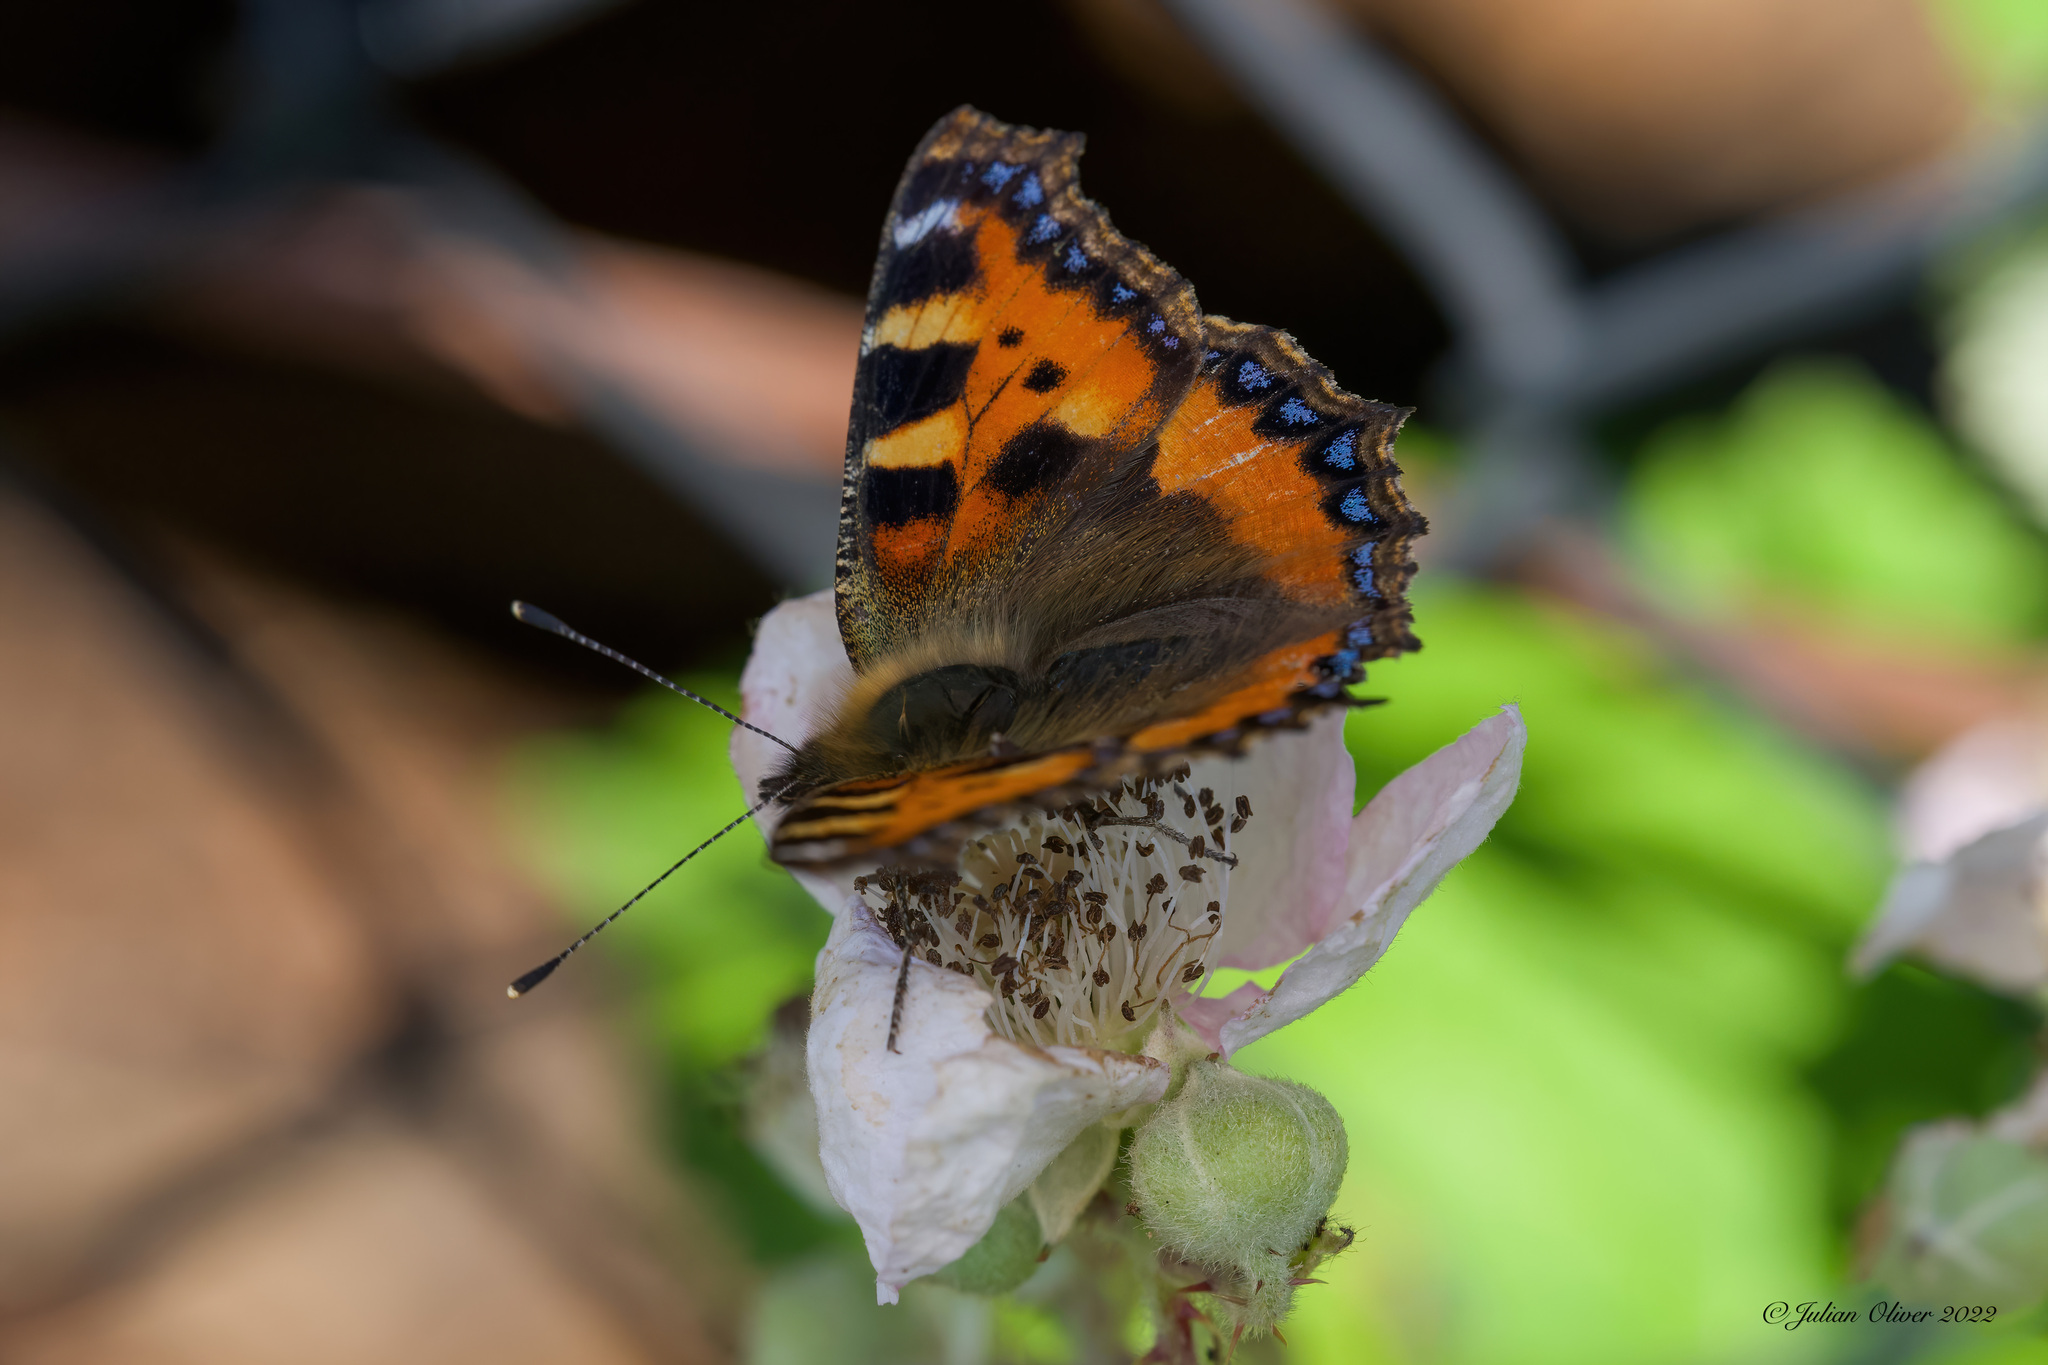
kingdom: Animalia
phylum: Arthropoda
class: Insecta
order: Lepidoptera
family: Nymphalidae
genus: Aglais
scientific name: Aglais urticae
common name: Small tortoiseshell
